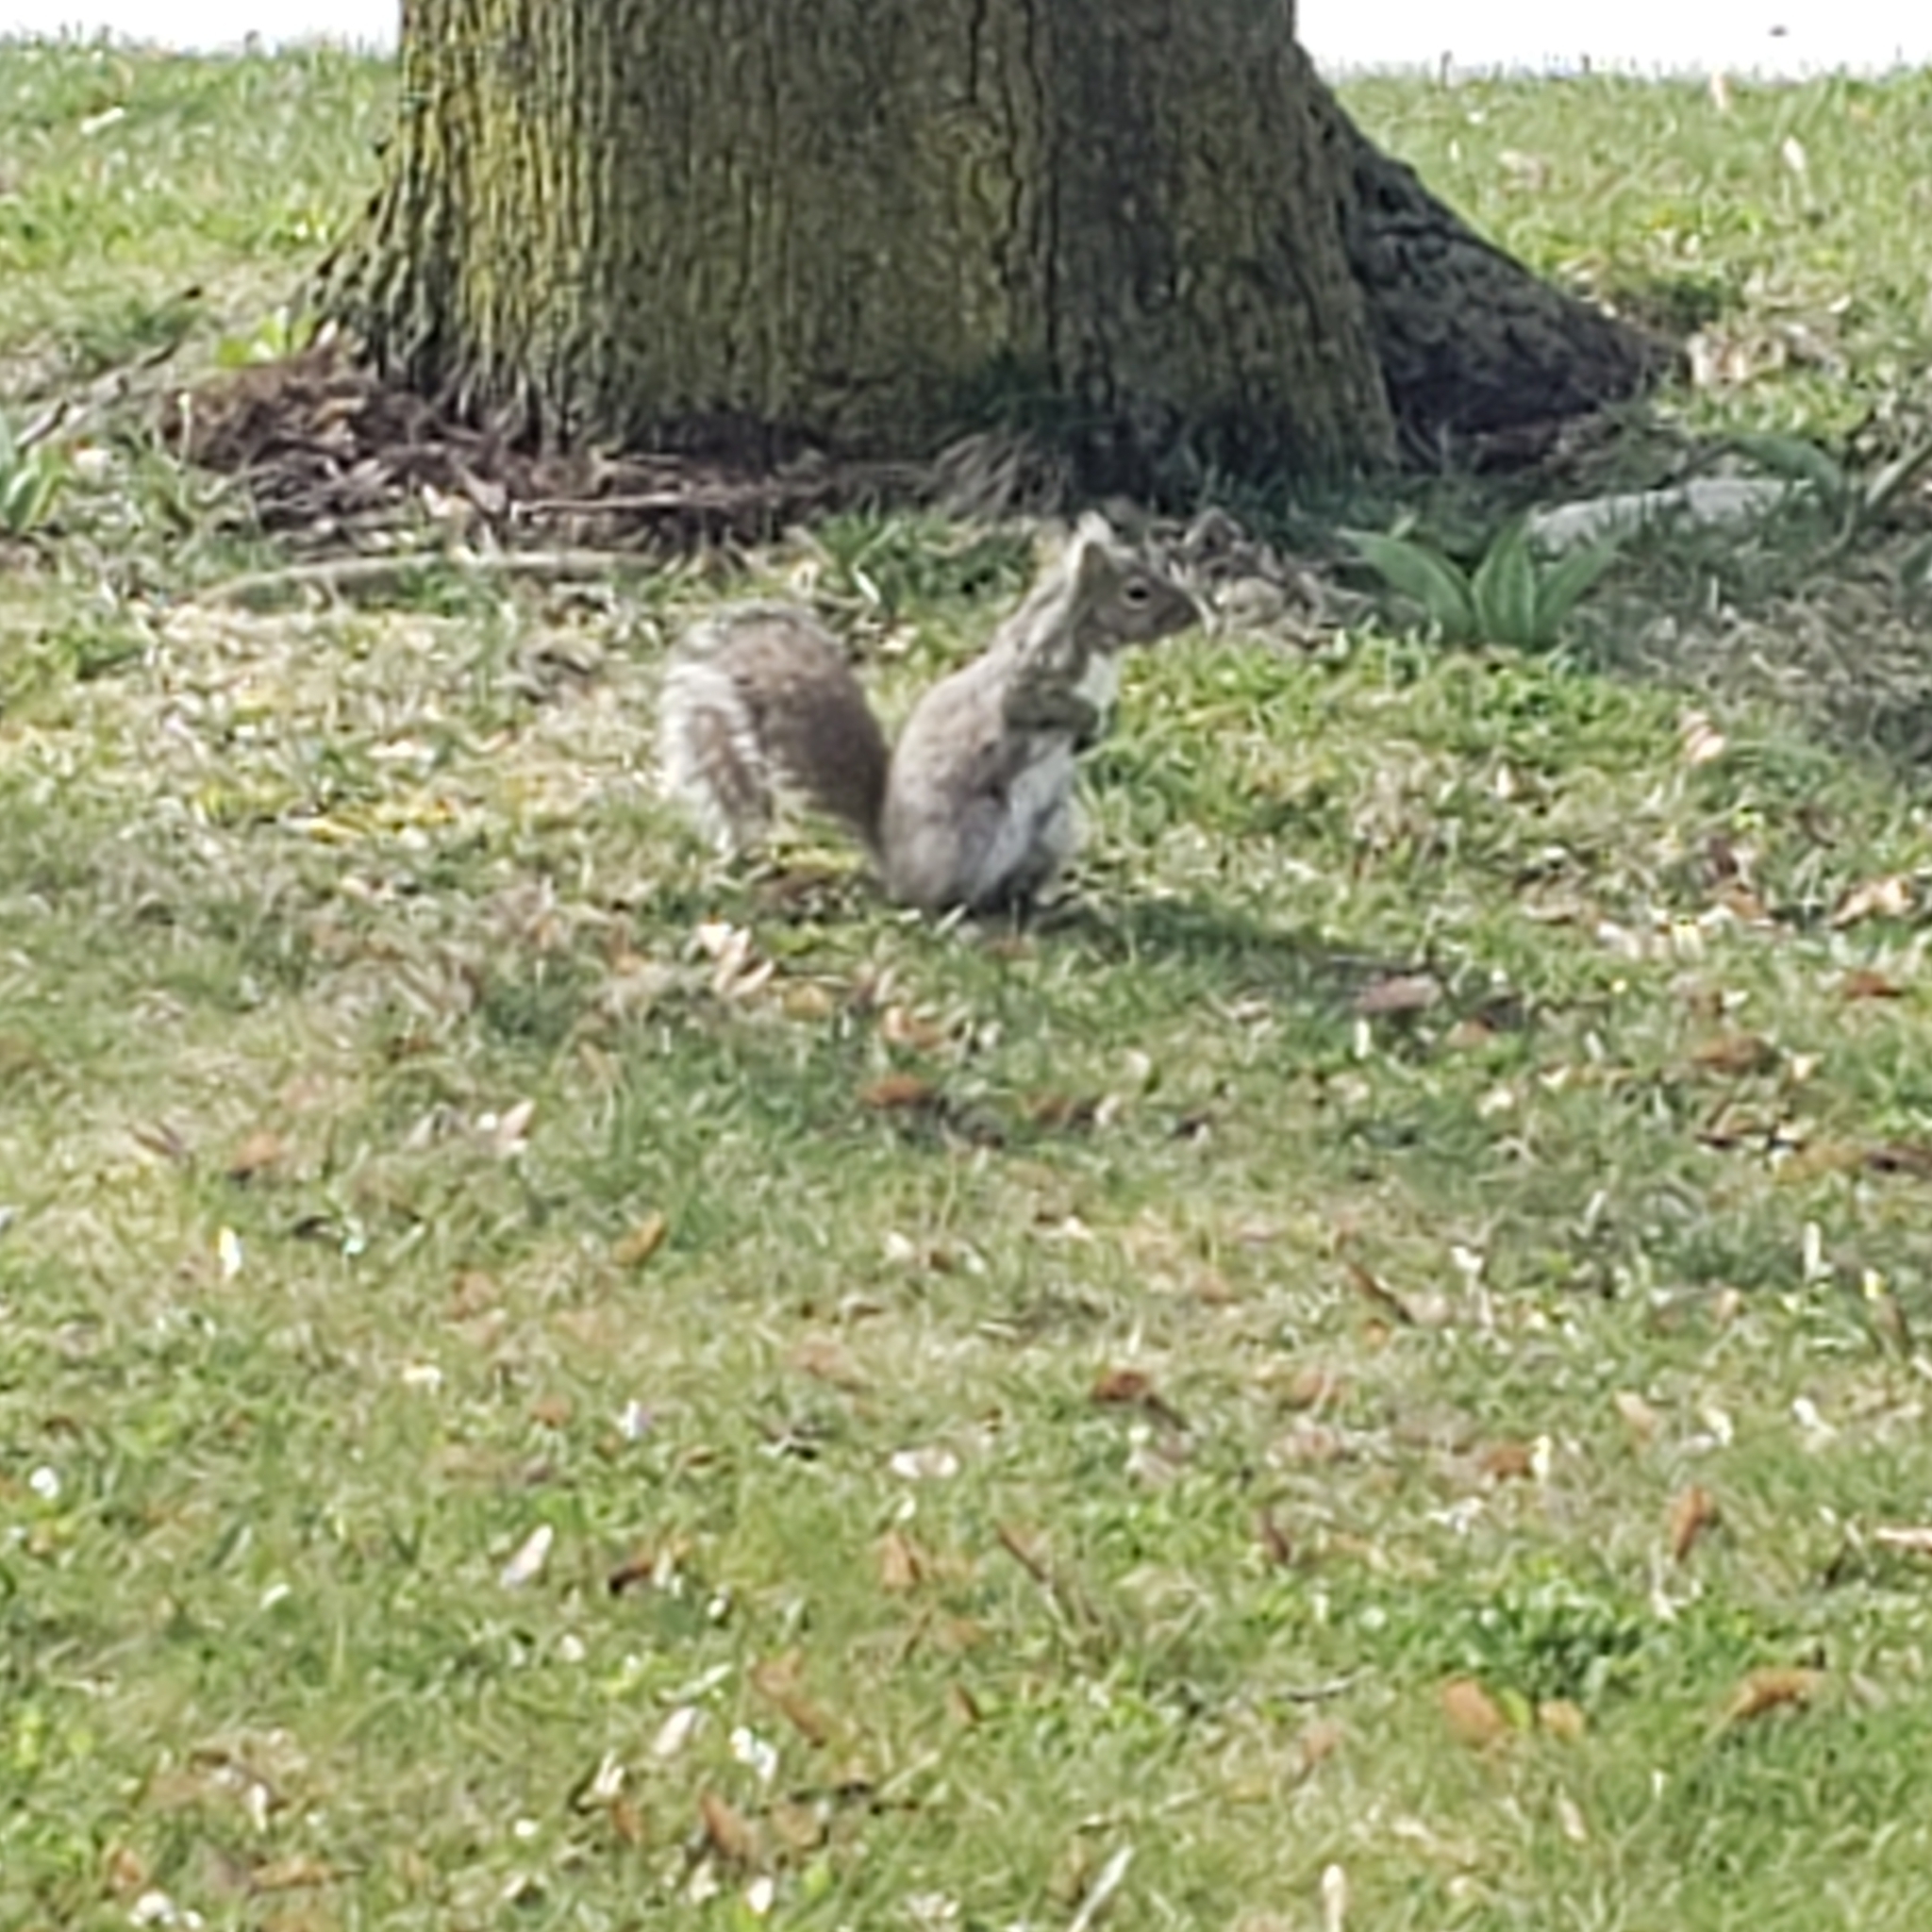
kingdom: Animalia
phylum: Chordata
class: Mammalia
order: Rodentia
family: Sciuridae
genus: Sciurus
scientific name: Sciurus carolinensis
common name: Eastern gray squirrel
